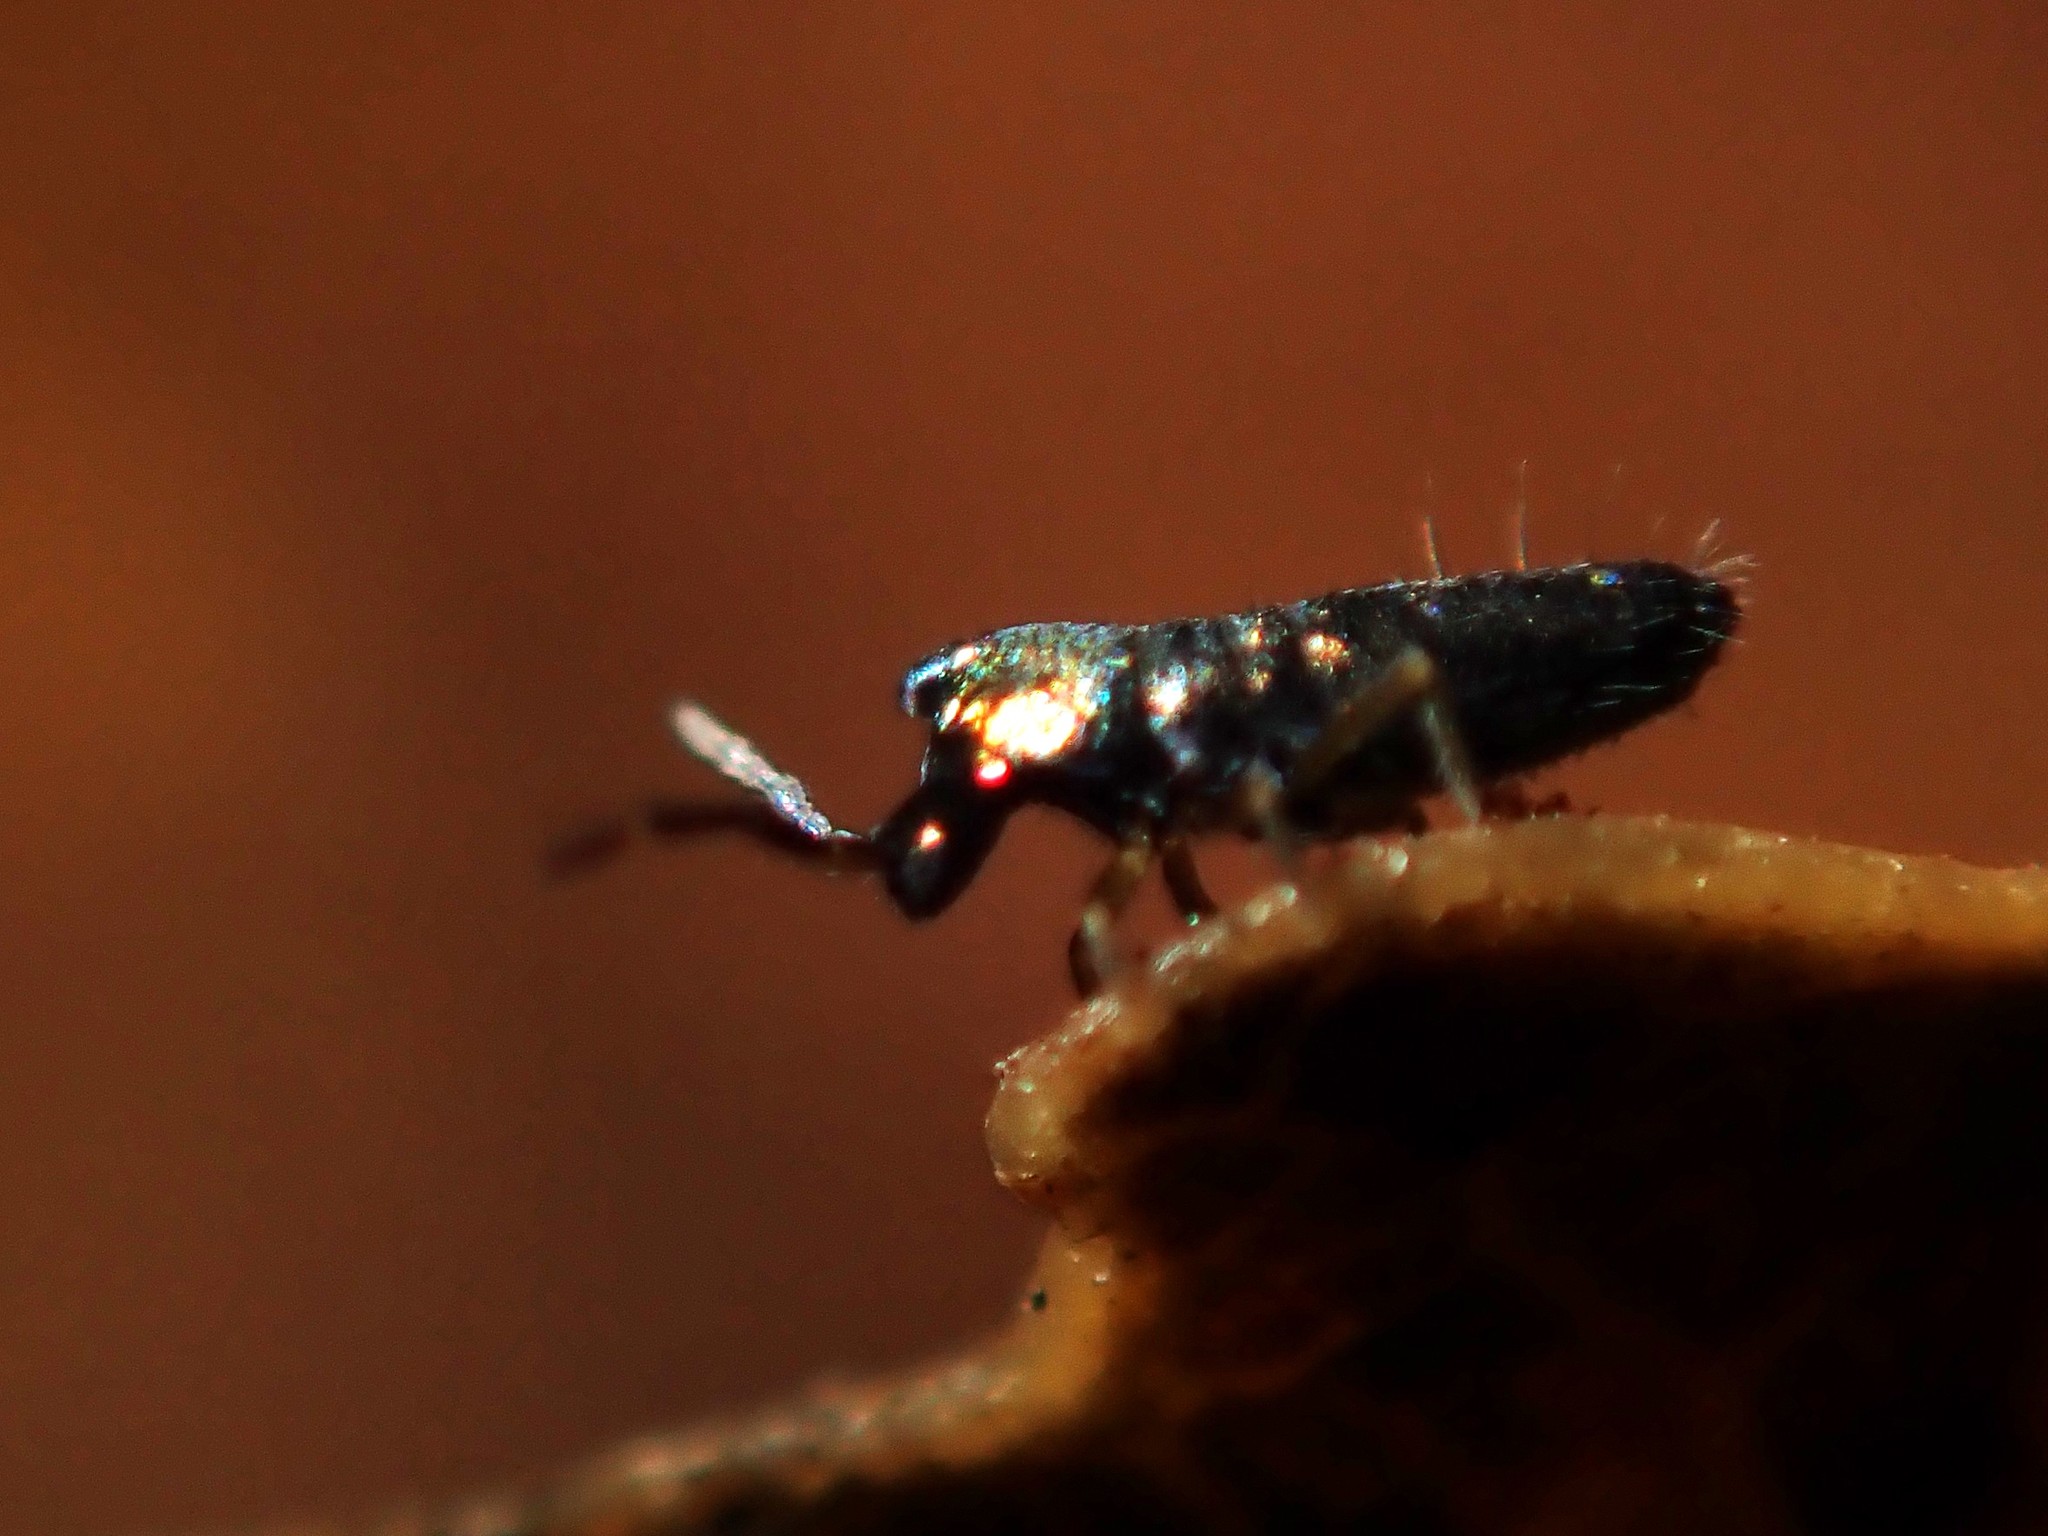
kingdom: Animalia
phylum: Arthropoda
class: Collembola
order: Entomobryomorpha
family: Entomobryidae
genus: Lepidocyrtus
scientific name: Lepidocyrtus paradoxus
